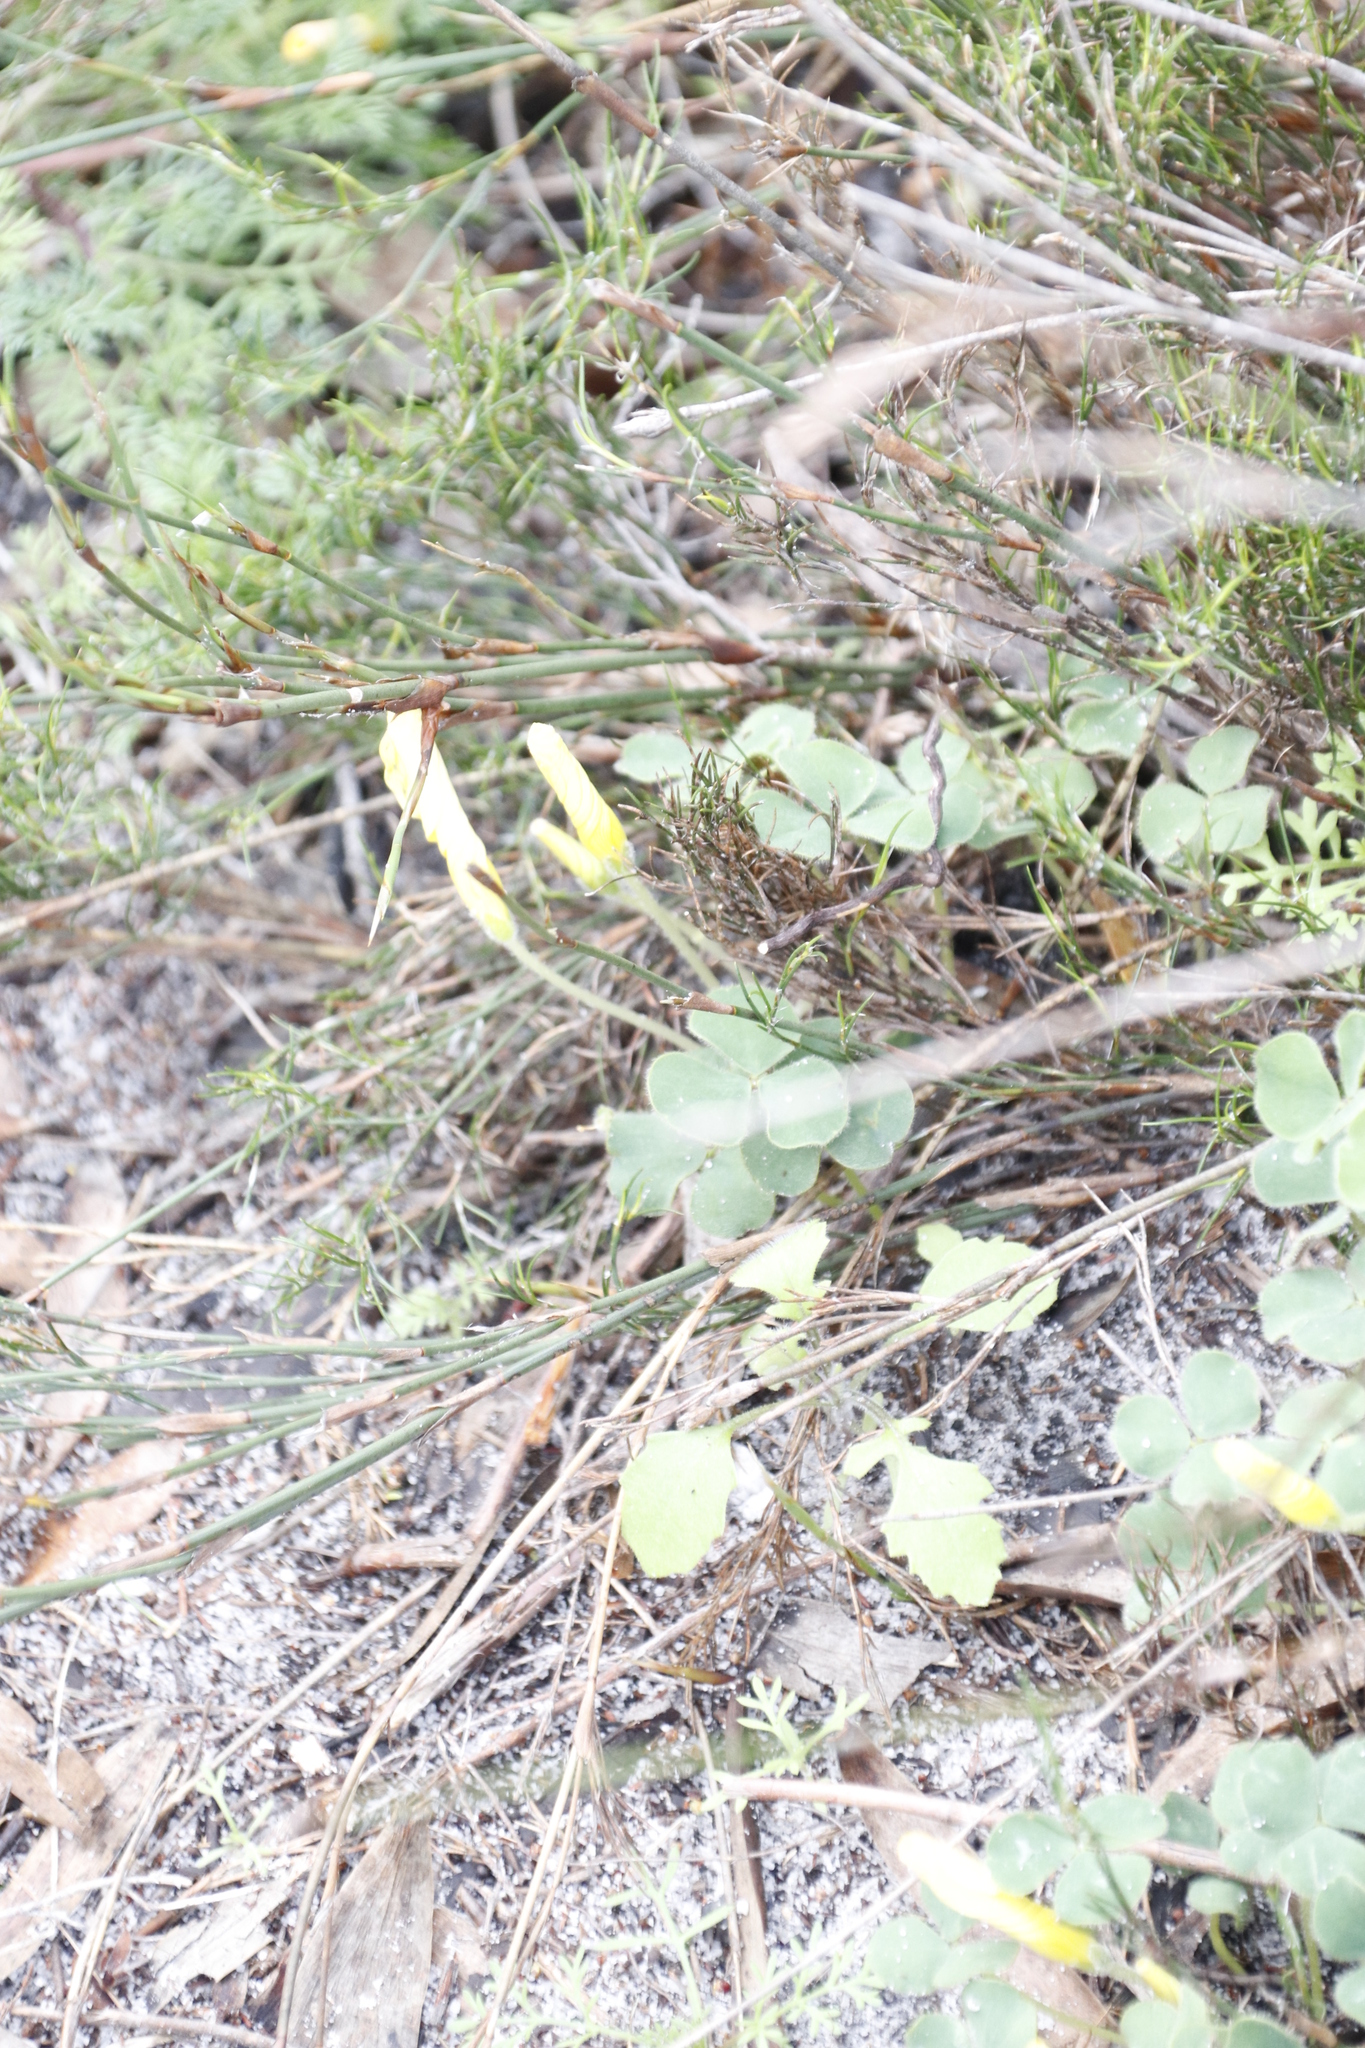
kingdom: Plantae
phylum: Tracheophyta
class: Magnoliopsida
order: Oxalidales
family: Oxalidaceae
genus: Oxalis
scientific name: Oxalis luteola
